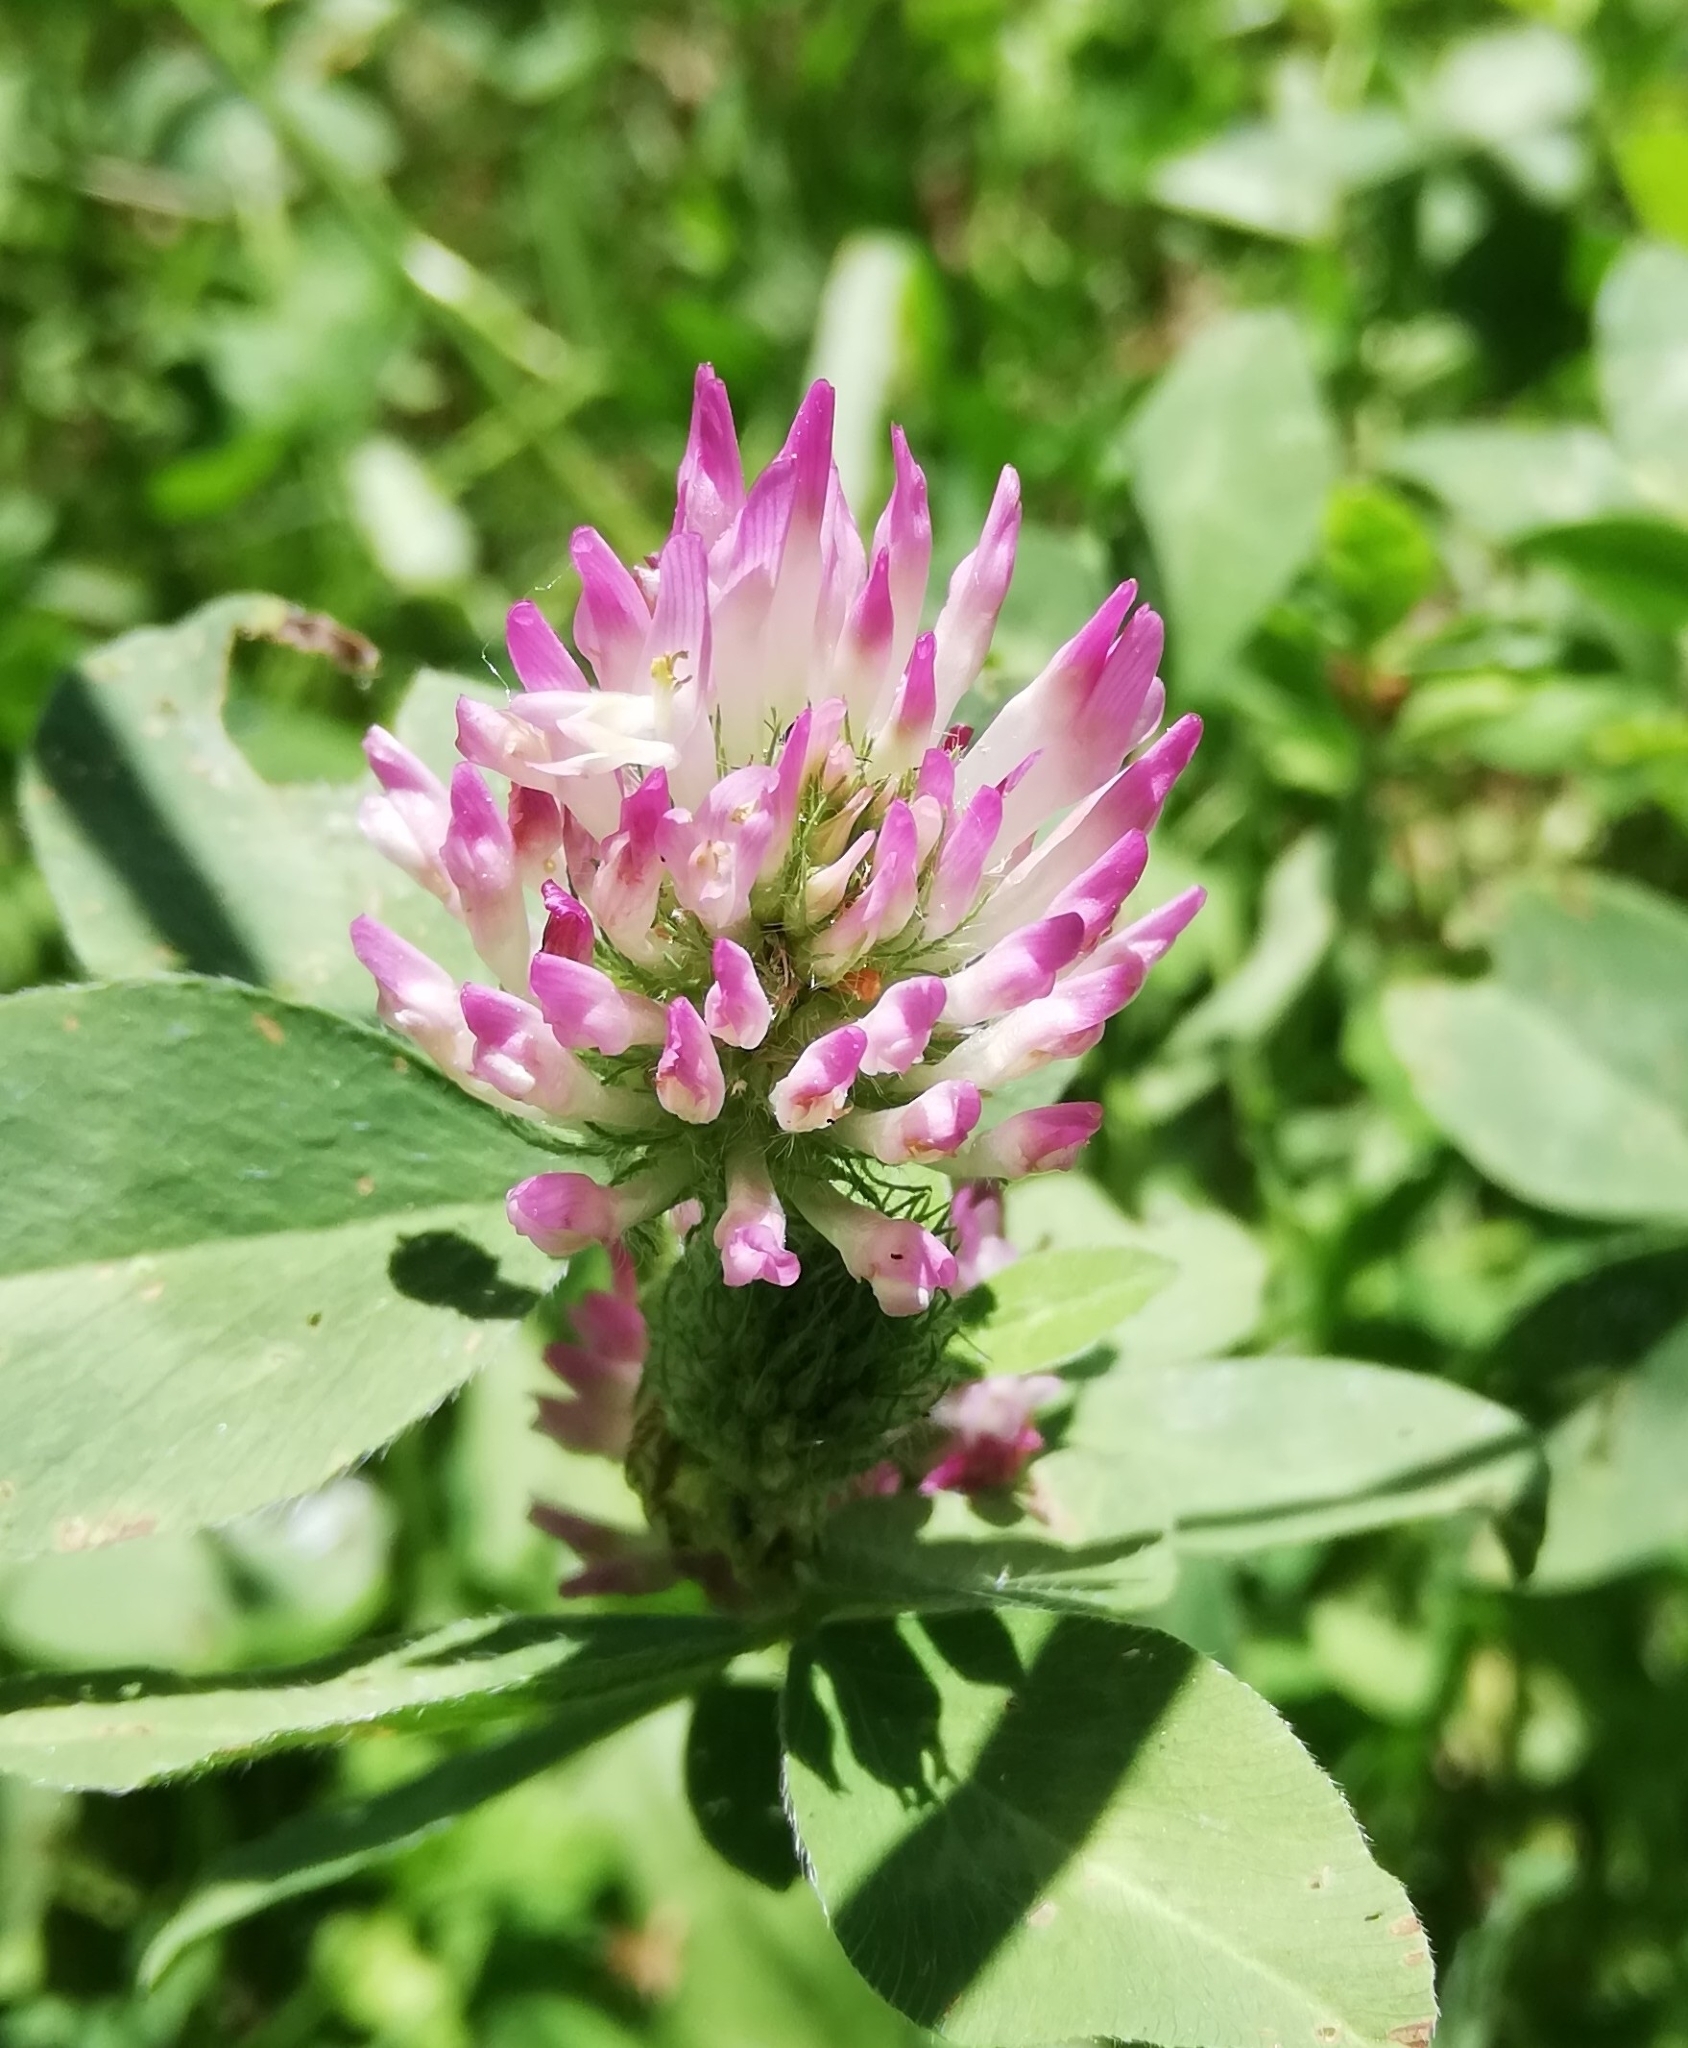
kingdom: Plantae
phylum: Tracheophyta
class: Magnoliopsida
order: Fabales
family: Fabaceae
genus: Trifolium
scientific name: Trifolium pratense
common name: Red clover
